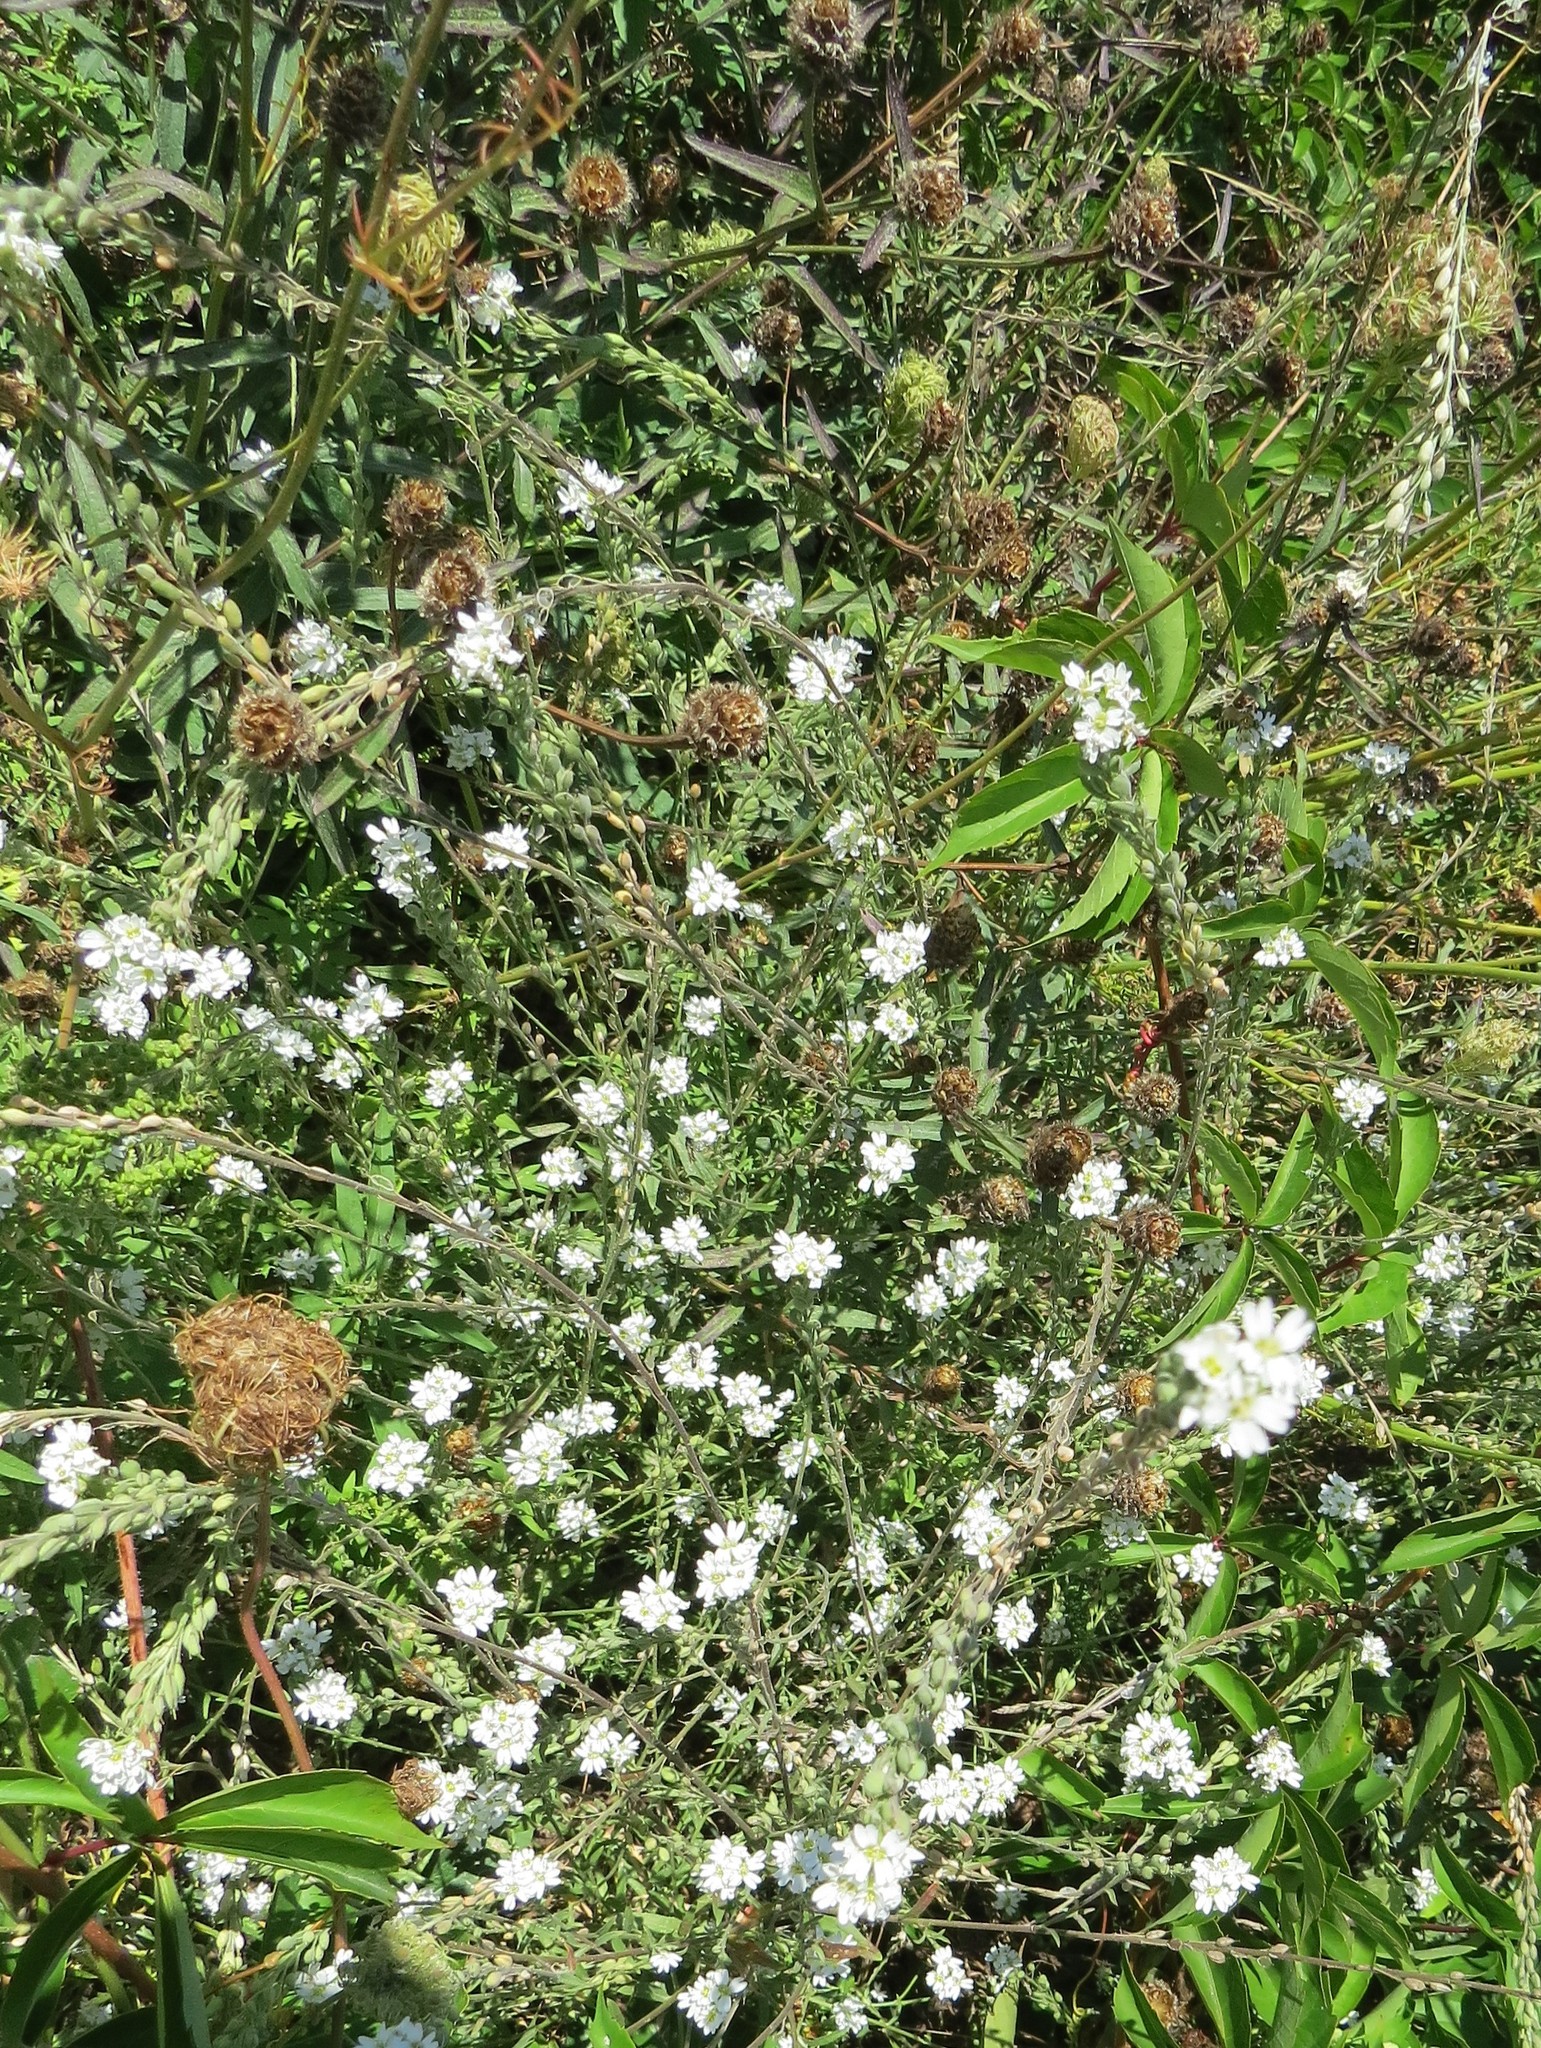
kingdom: Plantae
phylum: Tracheophyta
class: Magnoliopsida
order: Brassicales
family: Brassicaceae
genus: Berteroa
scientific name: Berteroa incana
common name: Hoary alison
